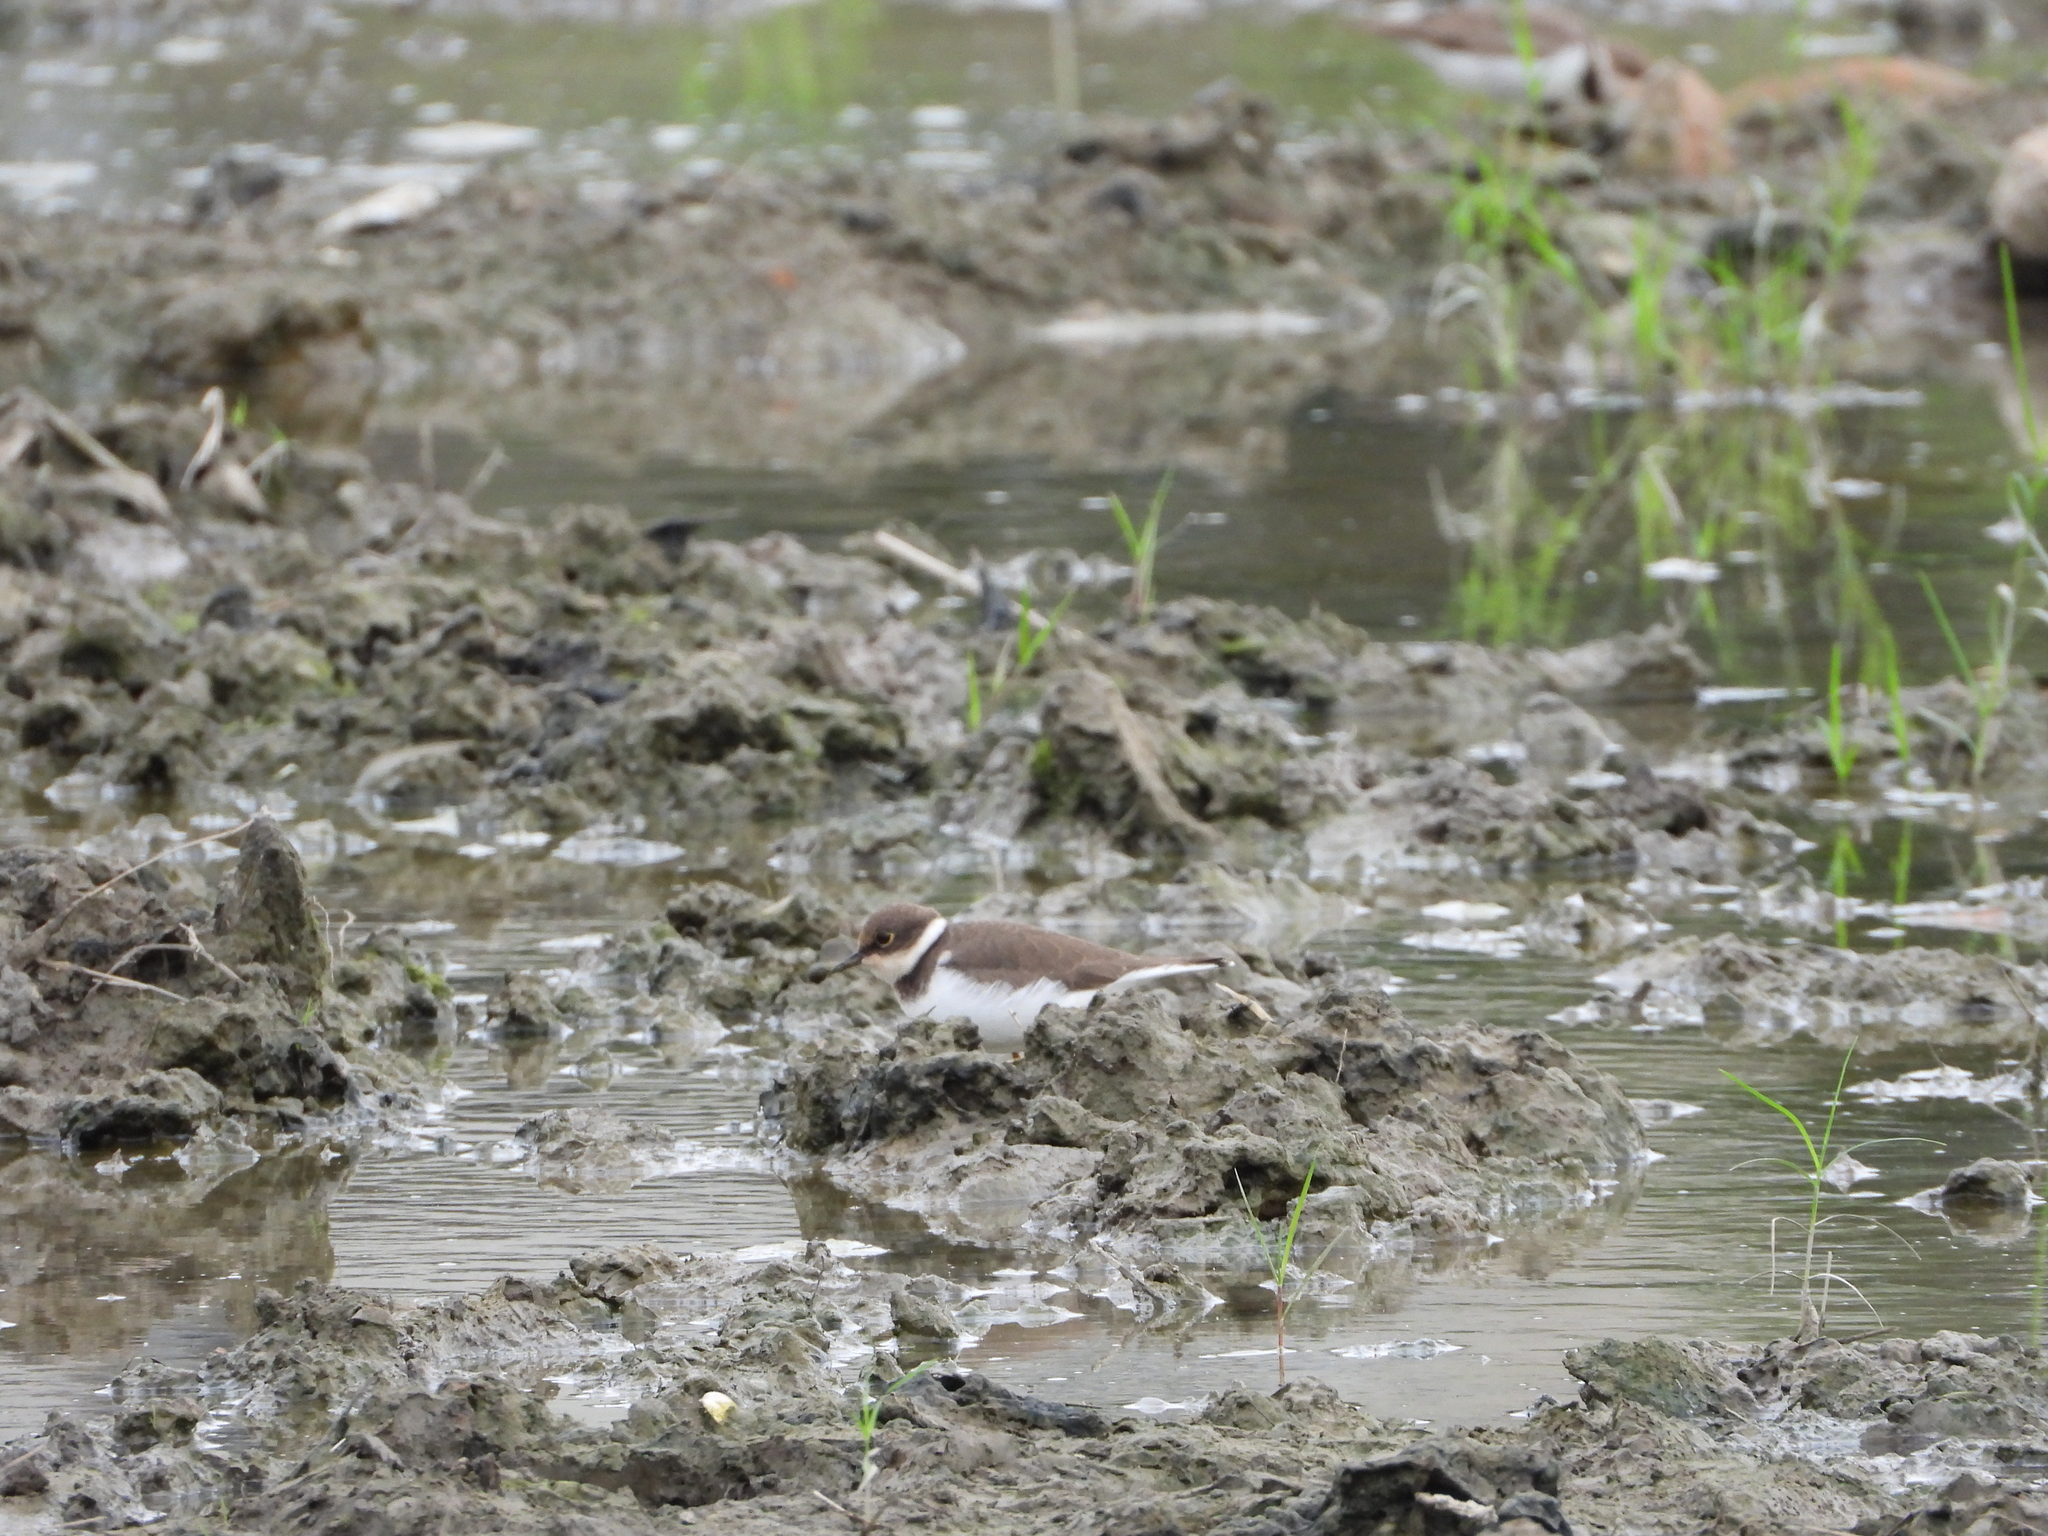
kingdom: Animalia
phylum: Chordata
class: Aves
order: Charadriiformes
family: Charadriidae
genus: Charadrius
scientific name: Charadrius dubius
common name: Little ringed plover
